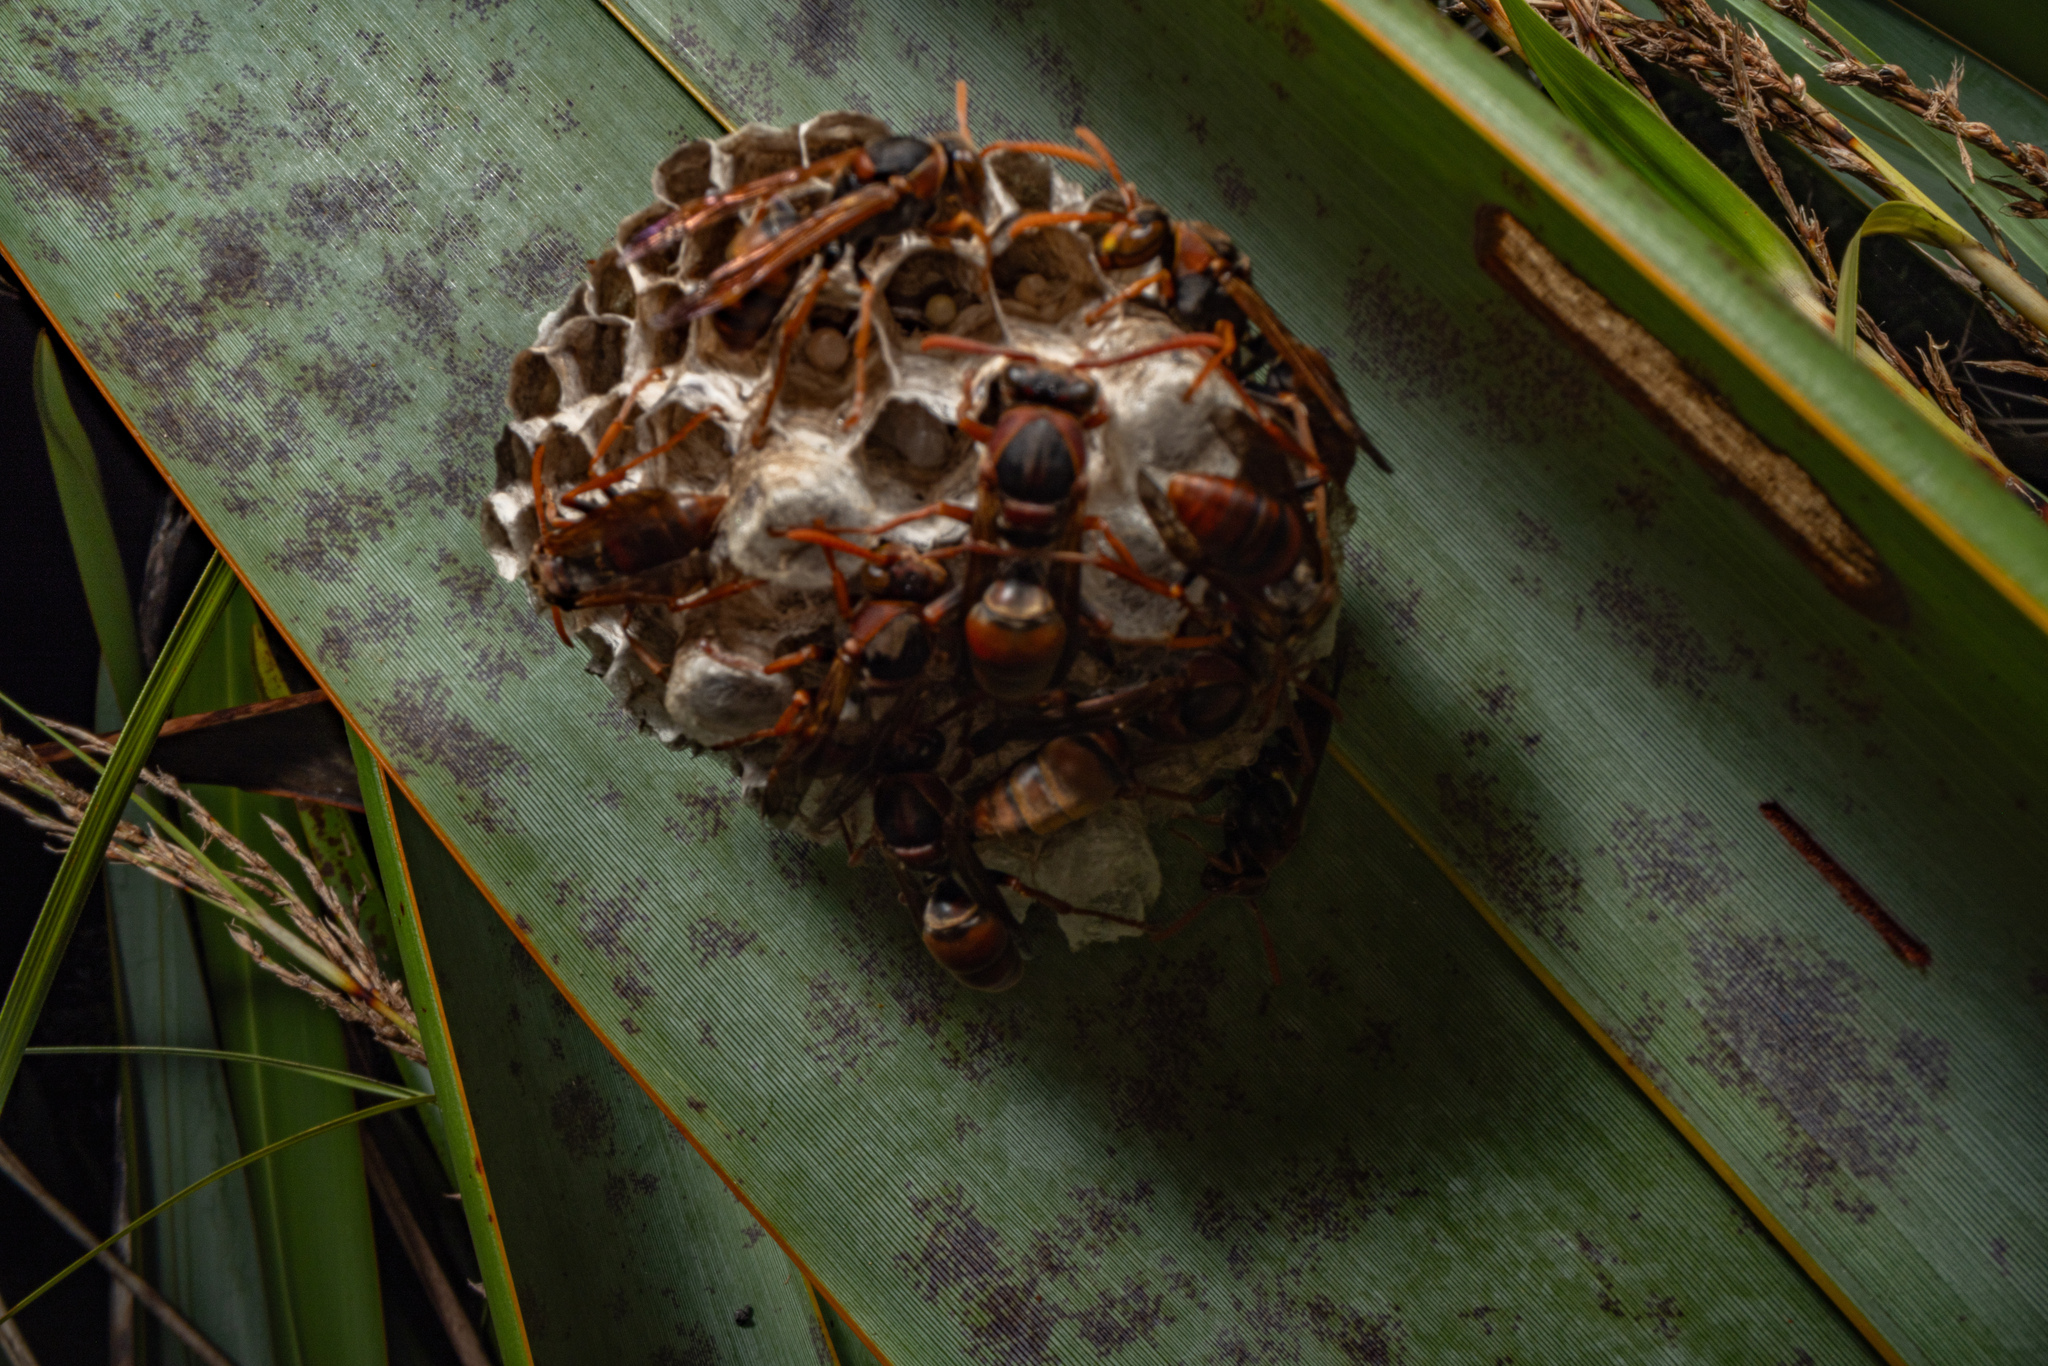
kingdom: Animalia
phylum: Arthropoda
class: Insecta
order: Hymenoptera
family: Eumenidae
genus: Polistes
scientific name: Polistes humilis
